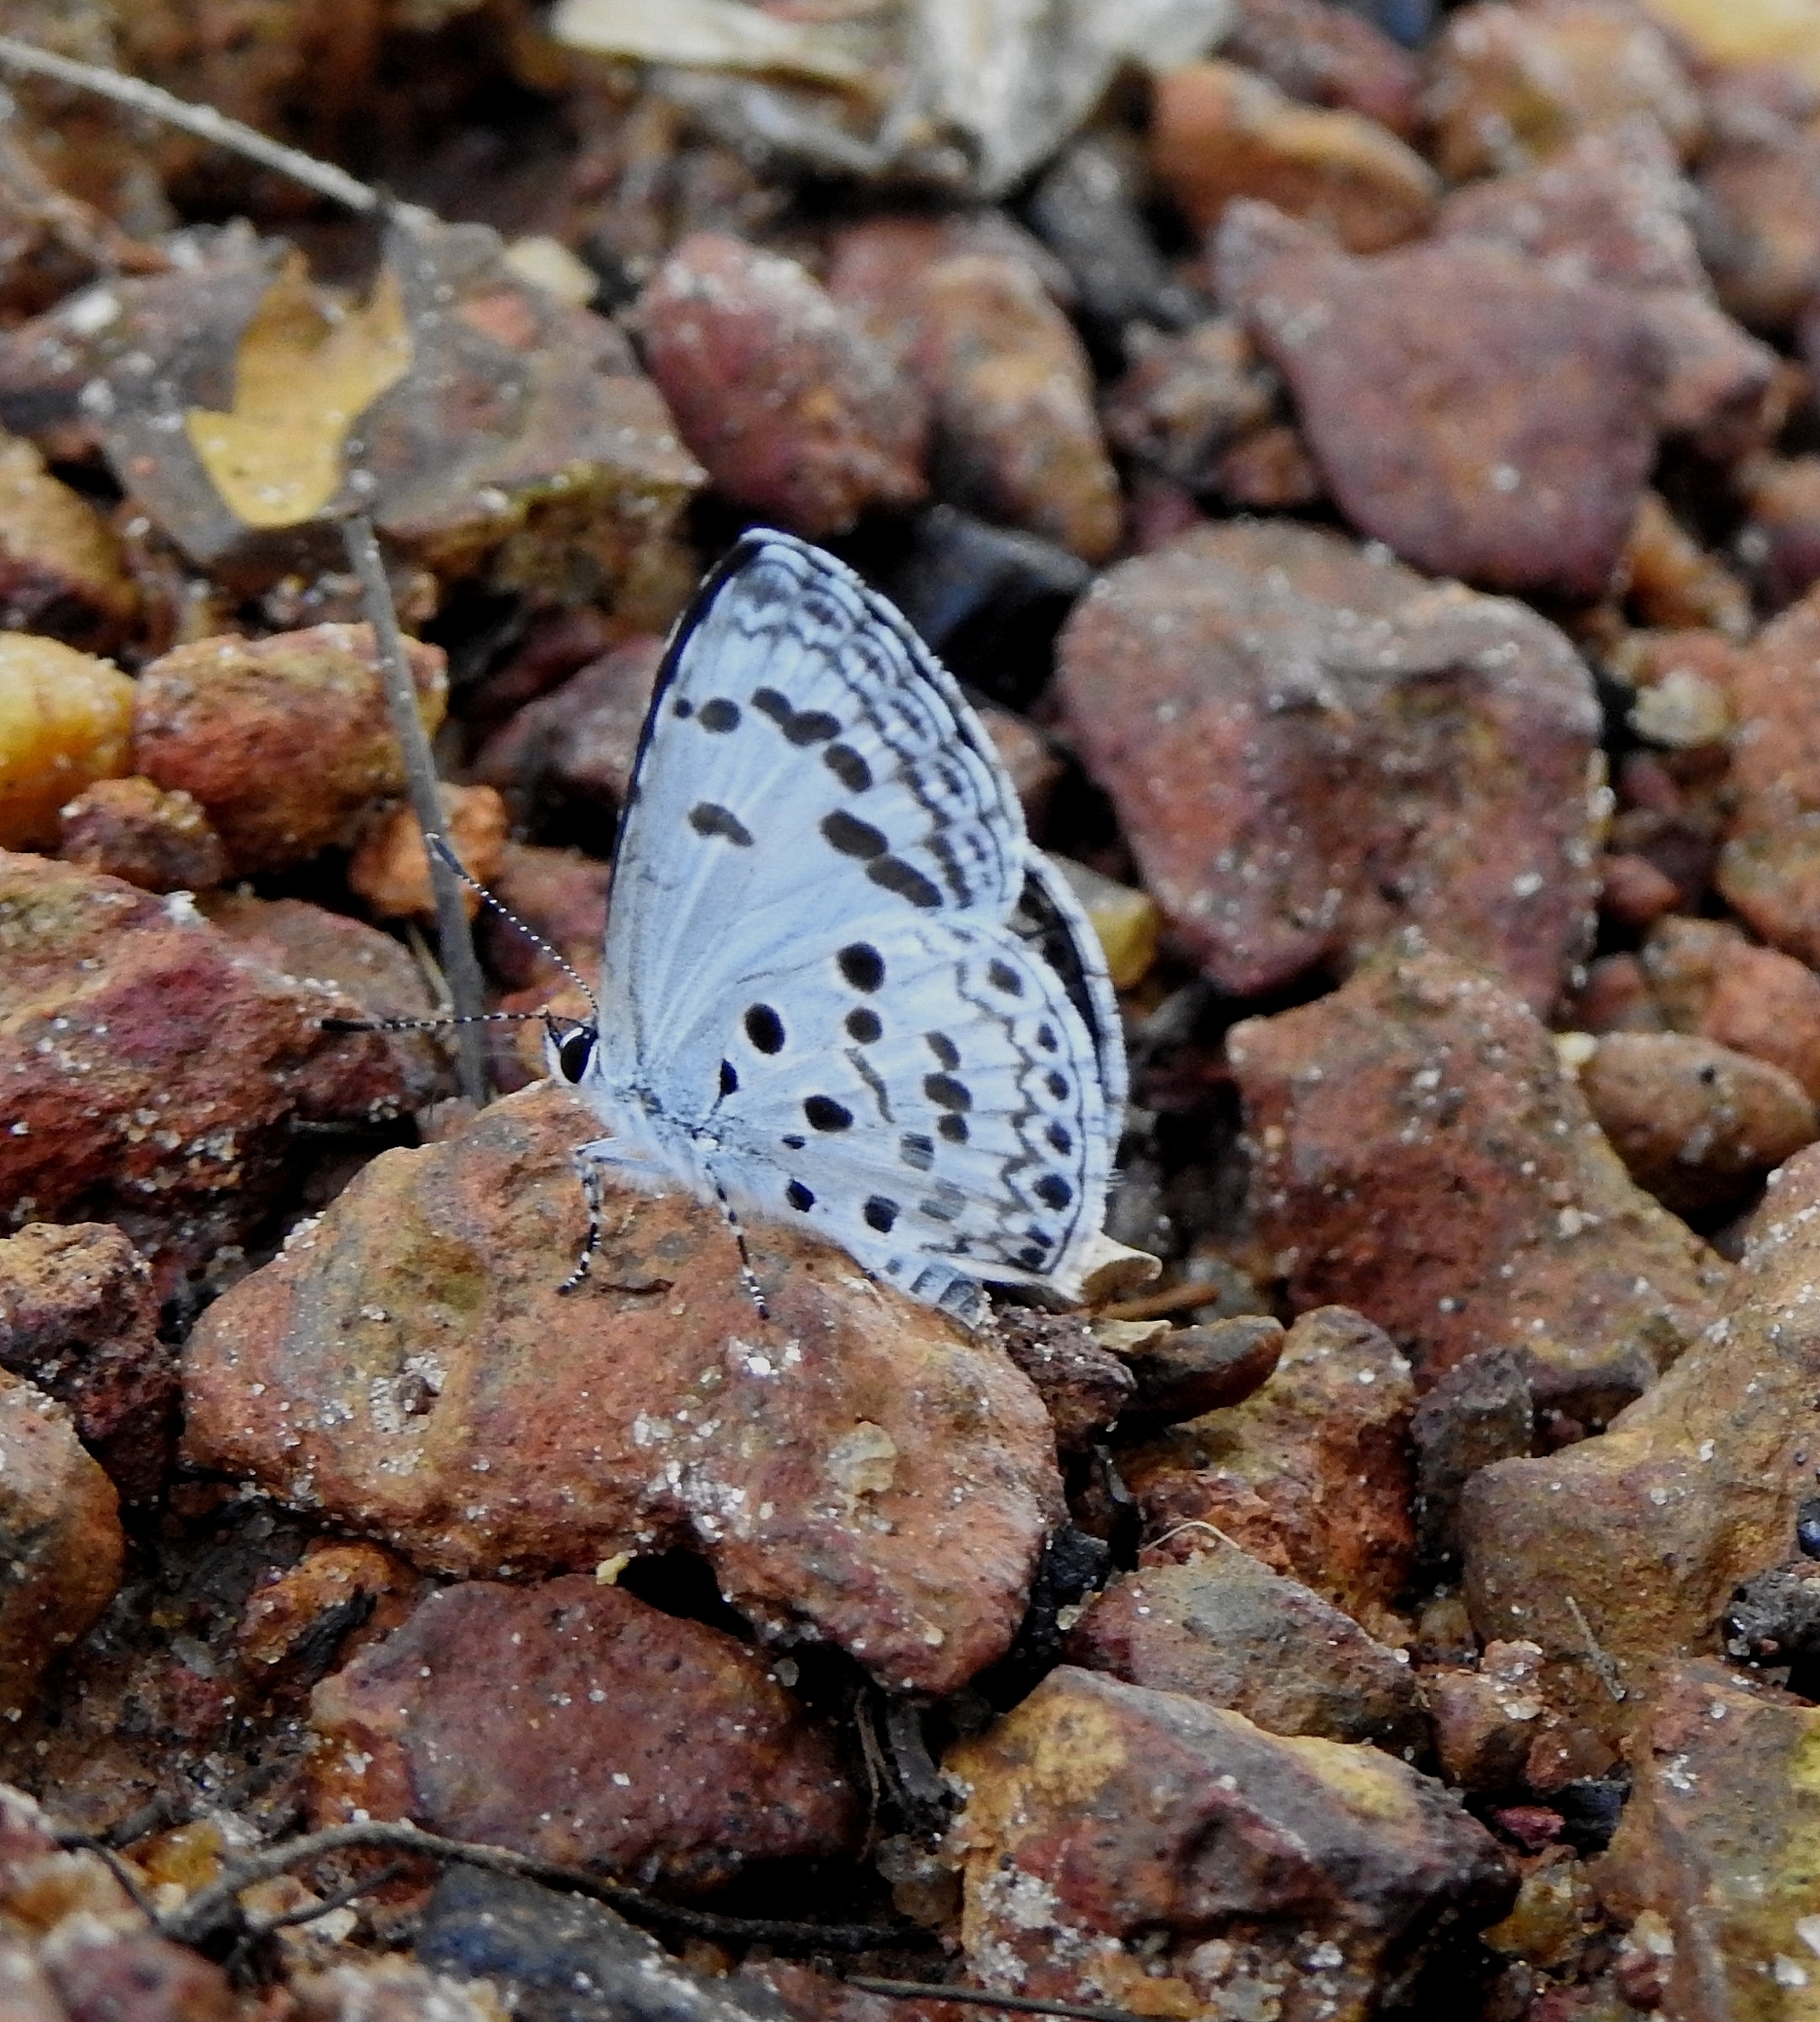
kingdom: Animalia
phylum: Arthropoda
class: Insecta
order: Lepidoptera
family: Lycaenidae
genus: Acytolepis
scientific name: Acytolepis puspa
